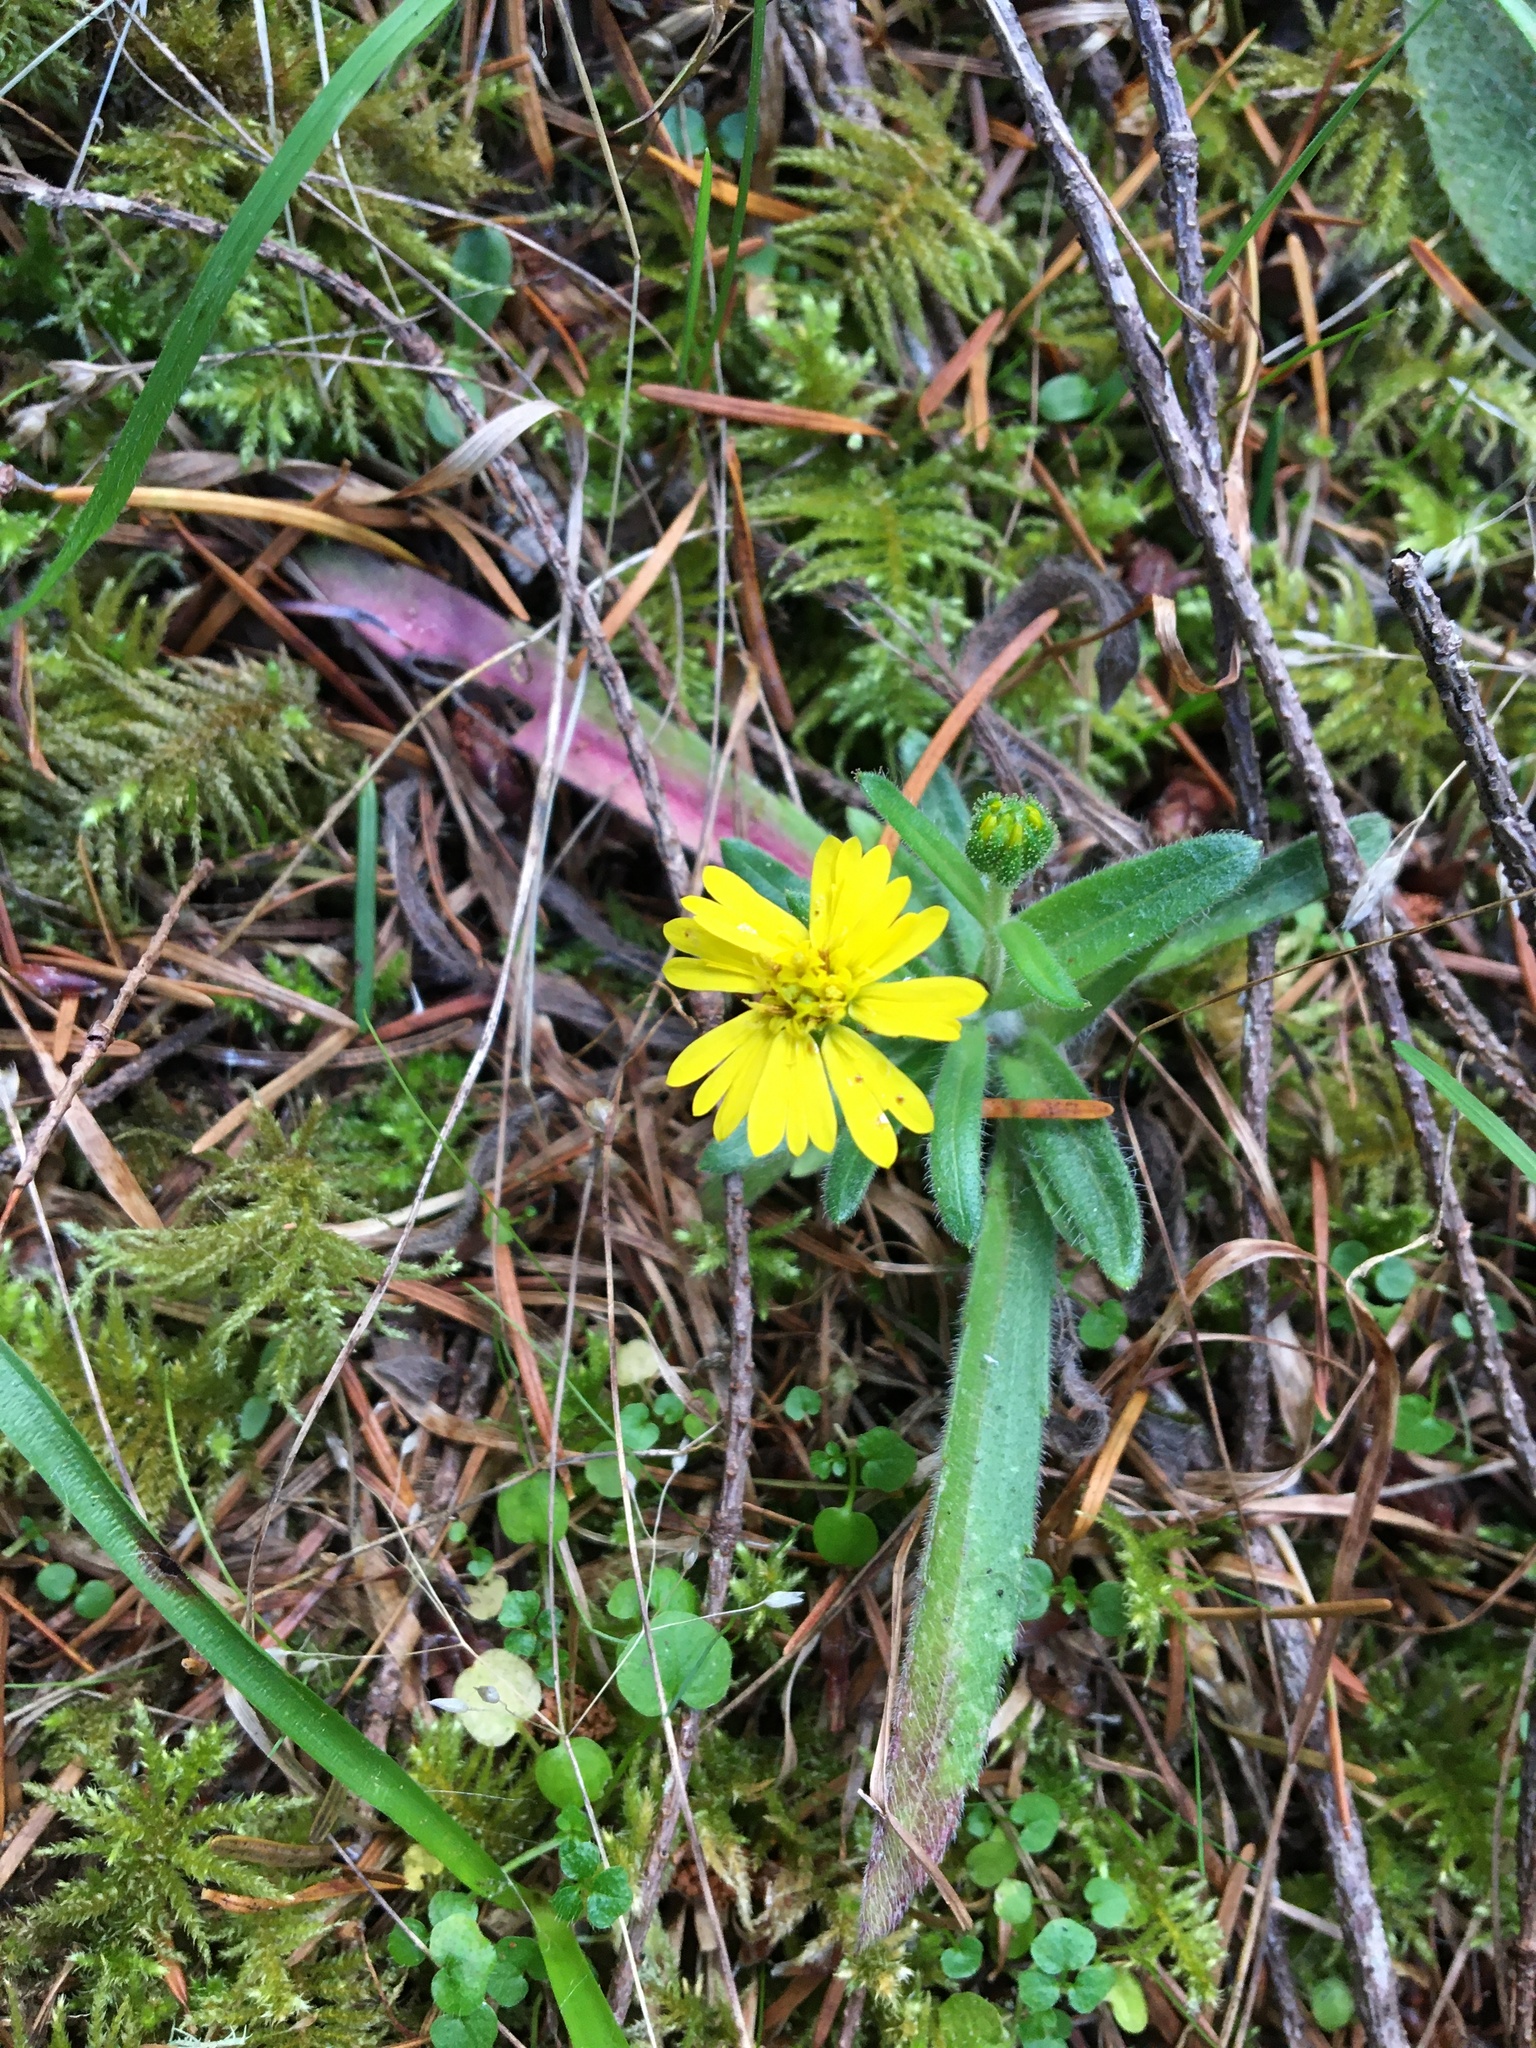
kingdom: Plantae
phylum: Tracheophyta
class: Magnoliopsida
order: Asterales
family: Asteraceae
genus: Anisocarpus
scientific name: Anisocarpus madioides
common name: Woodland madia
